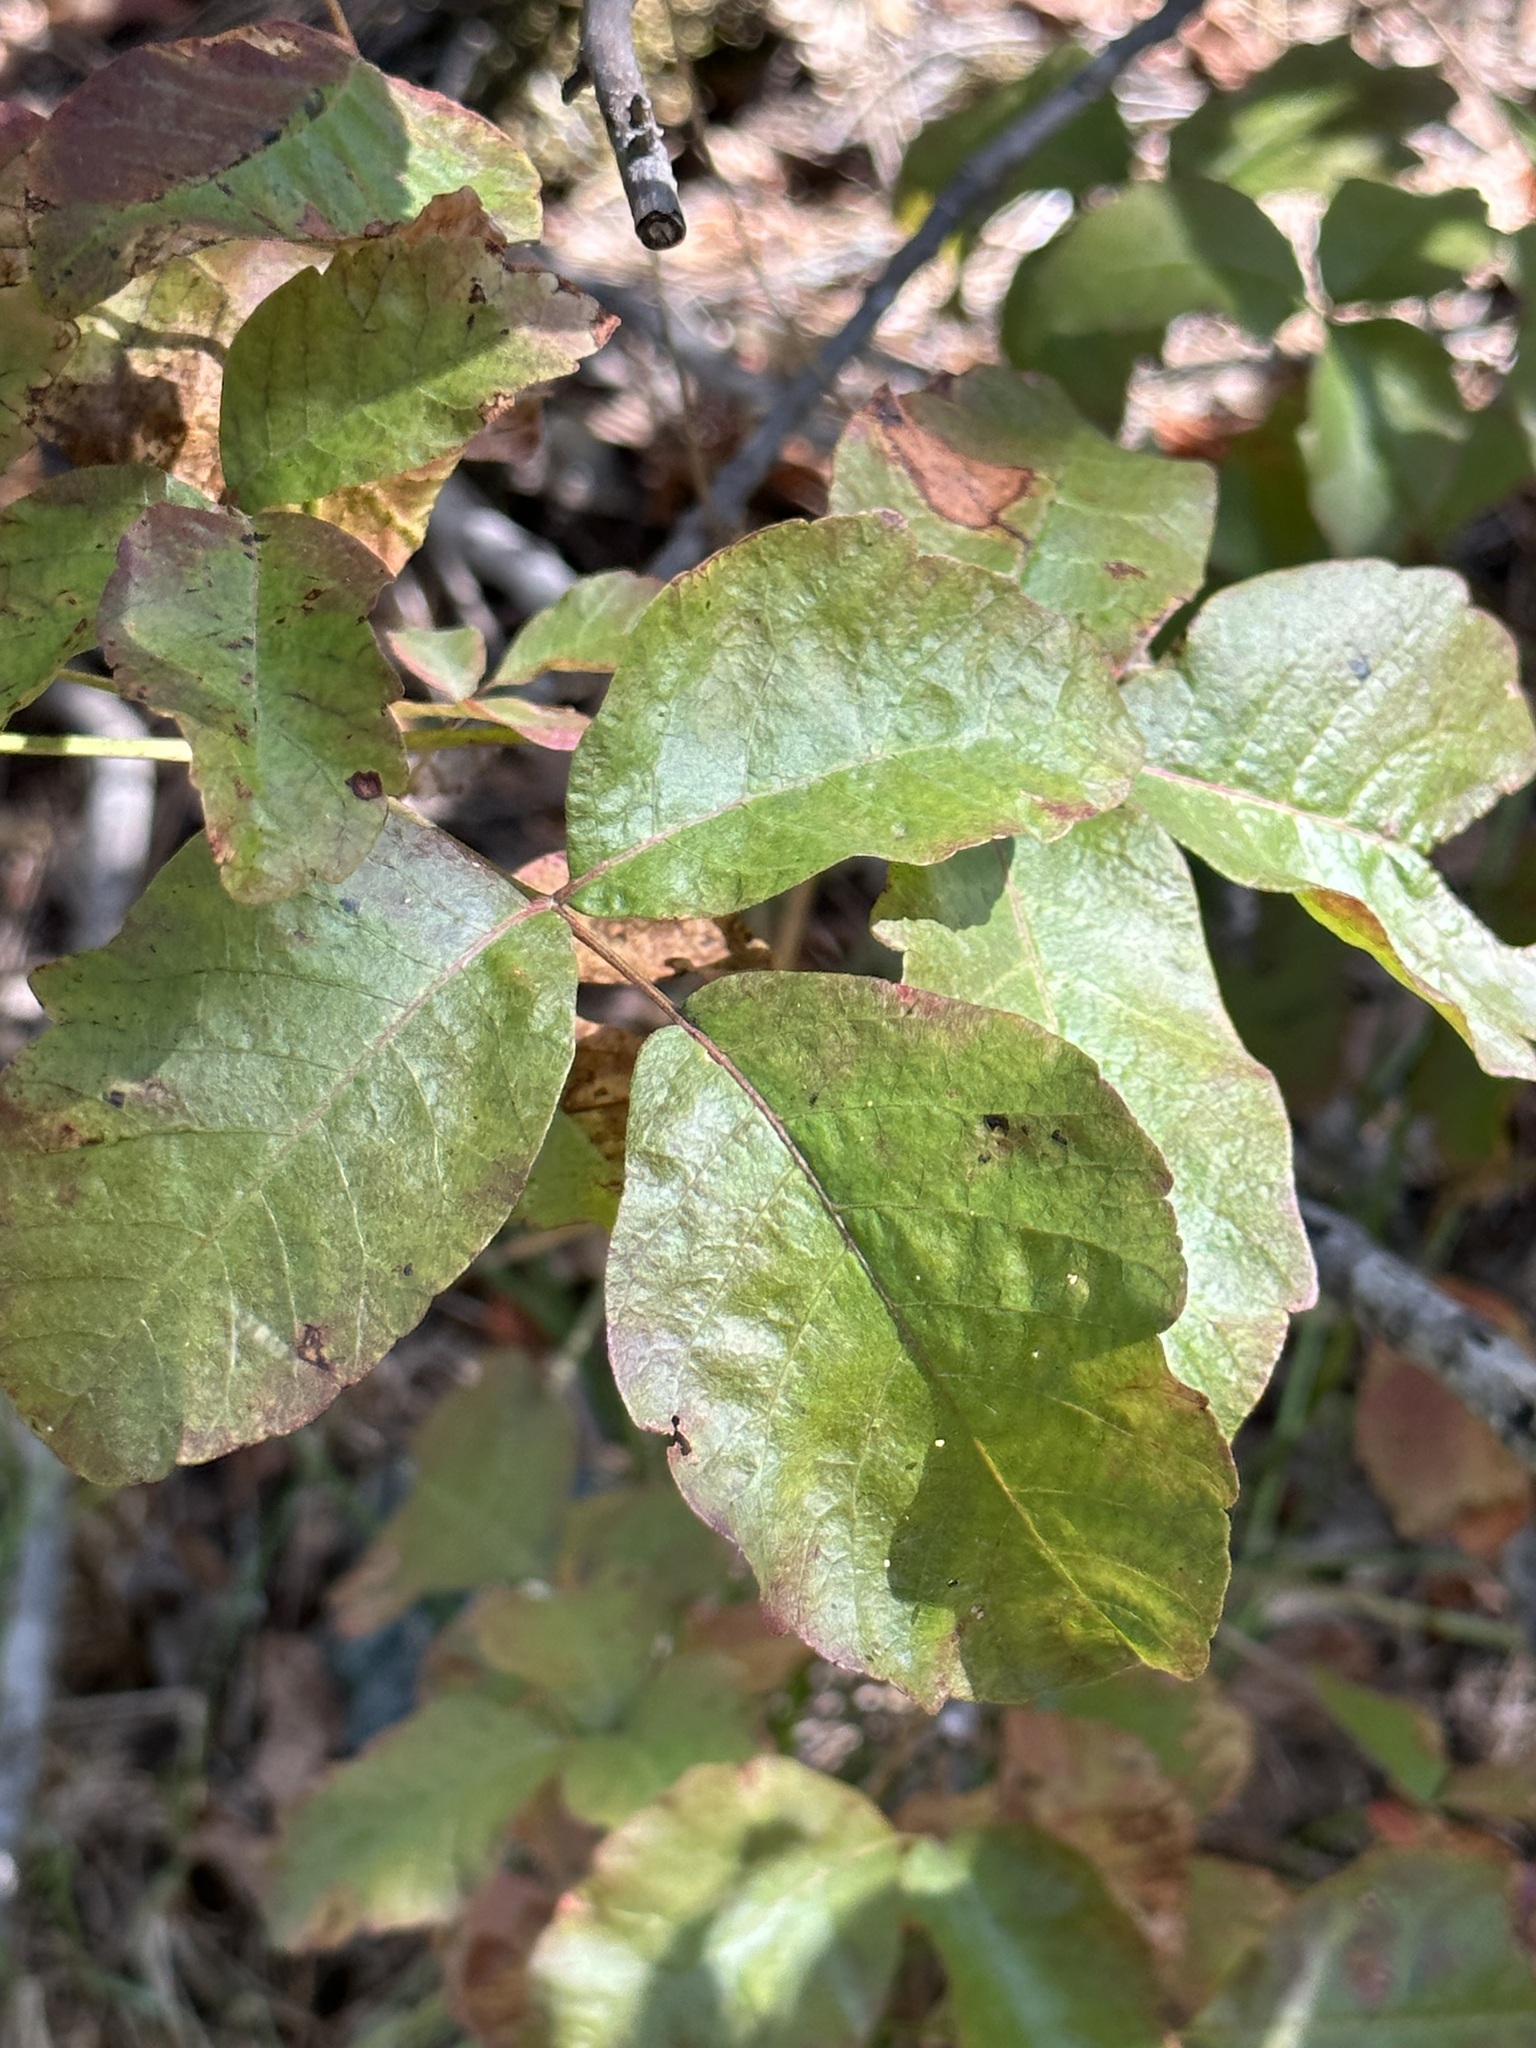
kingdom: Plantae
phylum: Tracheophyta
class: Magnoliopsida
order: Sapindales
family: Anacardiaceae
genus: Toxicodendron
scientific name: Toxicodendron diversilobum
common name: Pacific poison-oak
